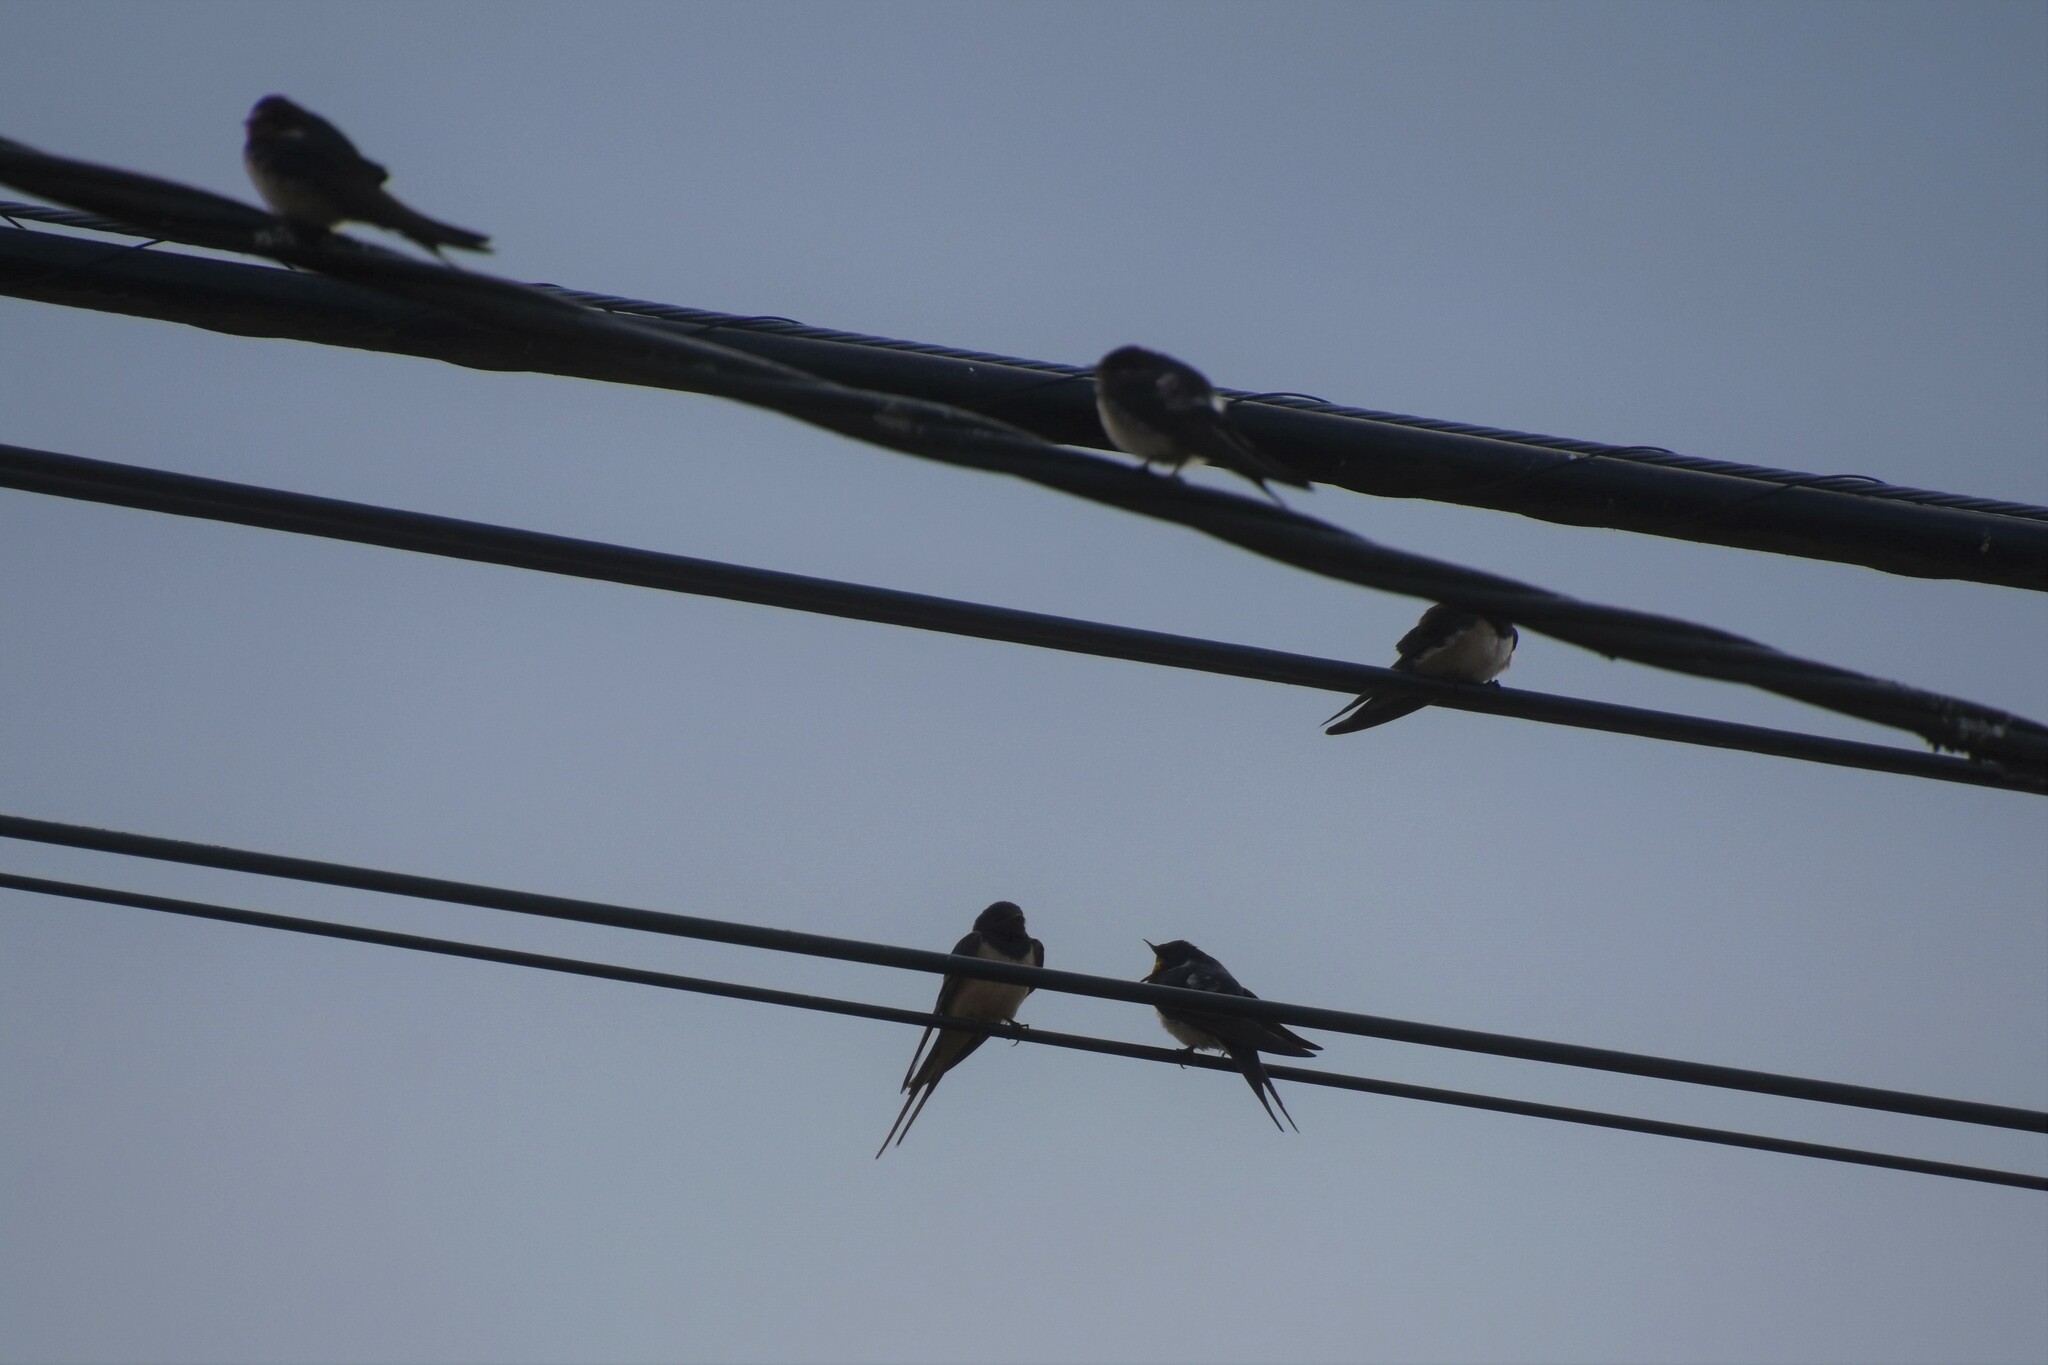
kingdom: Animalia
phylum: Chordata
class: Aves
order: Passeriformes
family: Hirundinidae
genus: Hirundo
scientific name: Hirundo rustica
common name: Barn swallow
